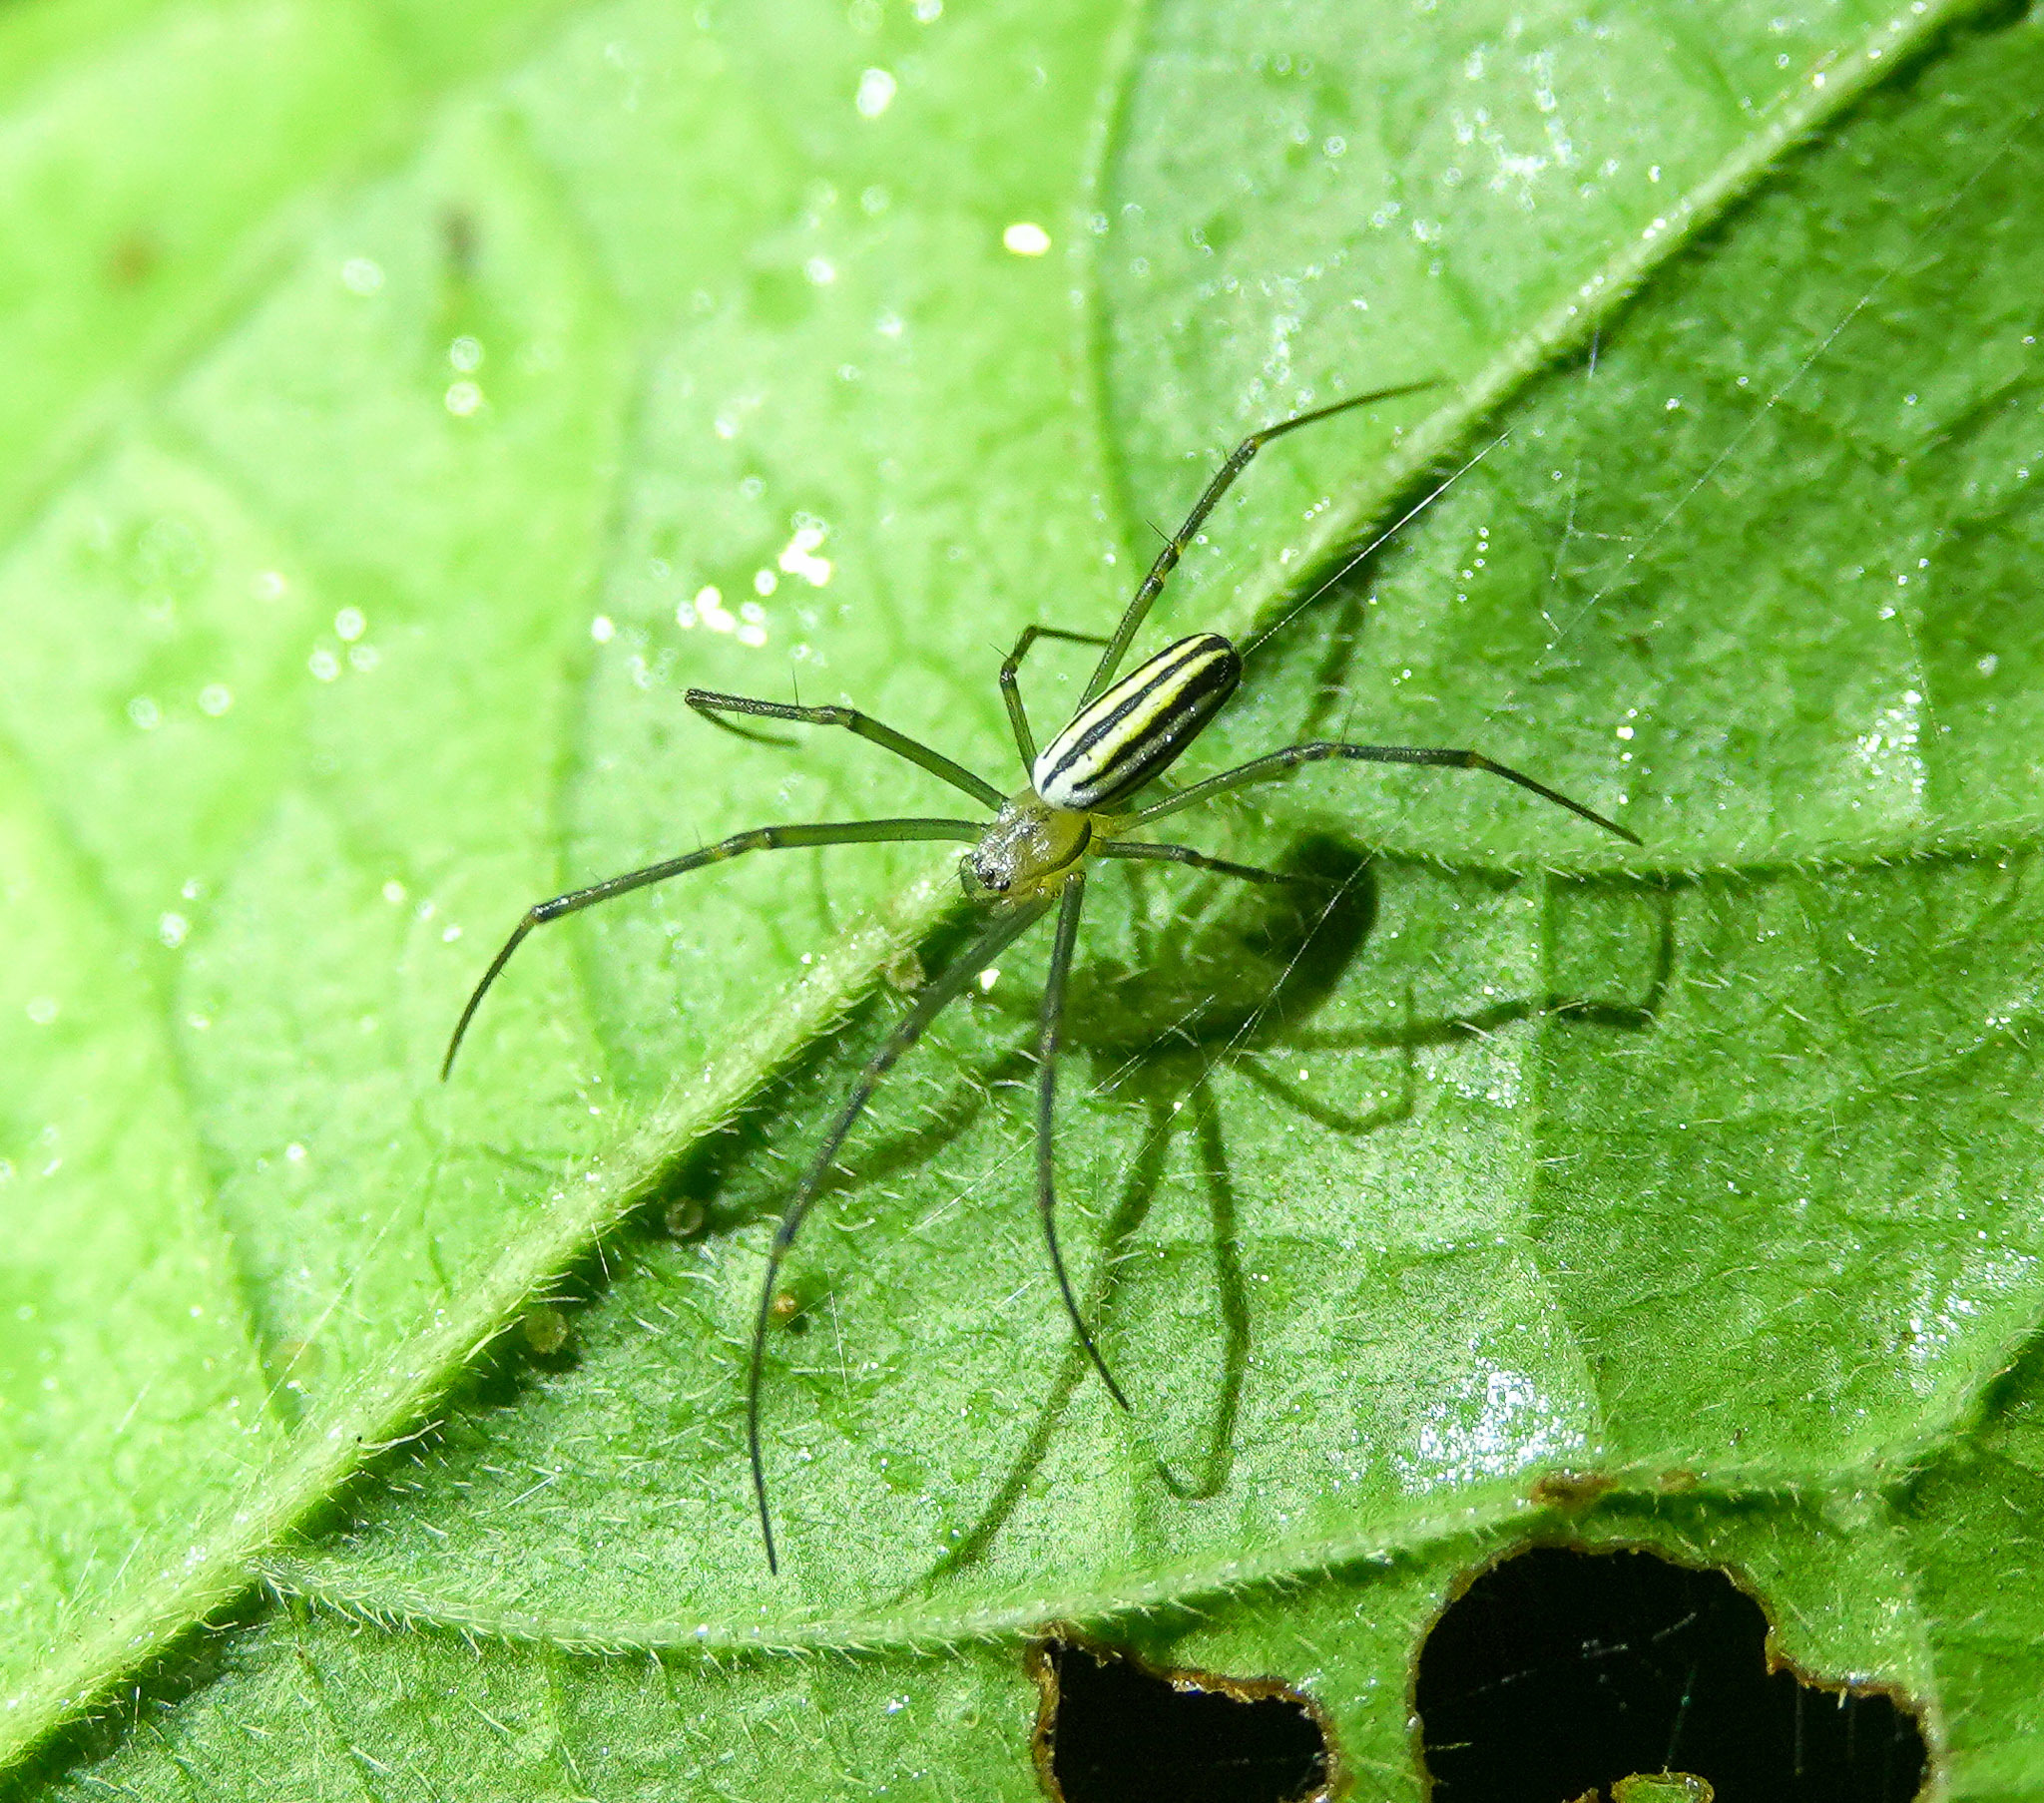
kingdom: Animalia
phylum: Arthropoda
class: Arachnida
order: Araneae
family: Araneidae
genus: Nephila
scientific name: Nephila pilipes
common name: Giant golden orb weaver
